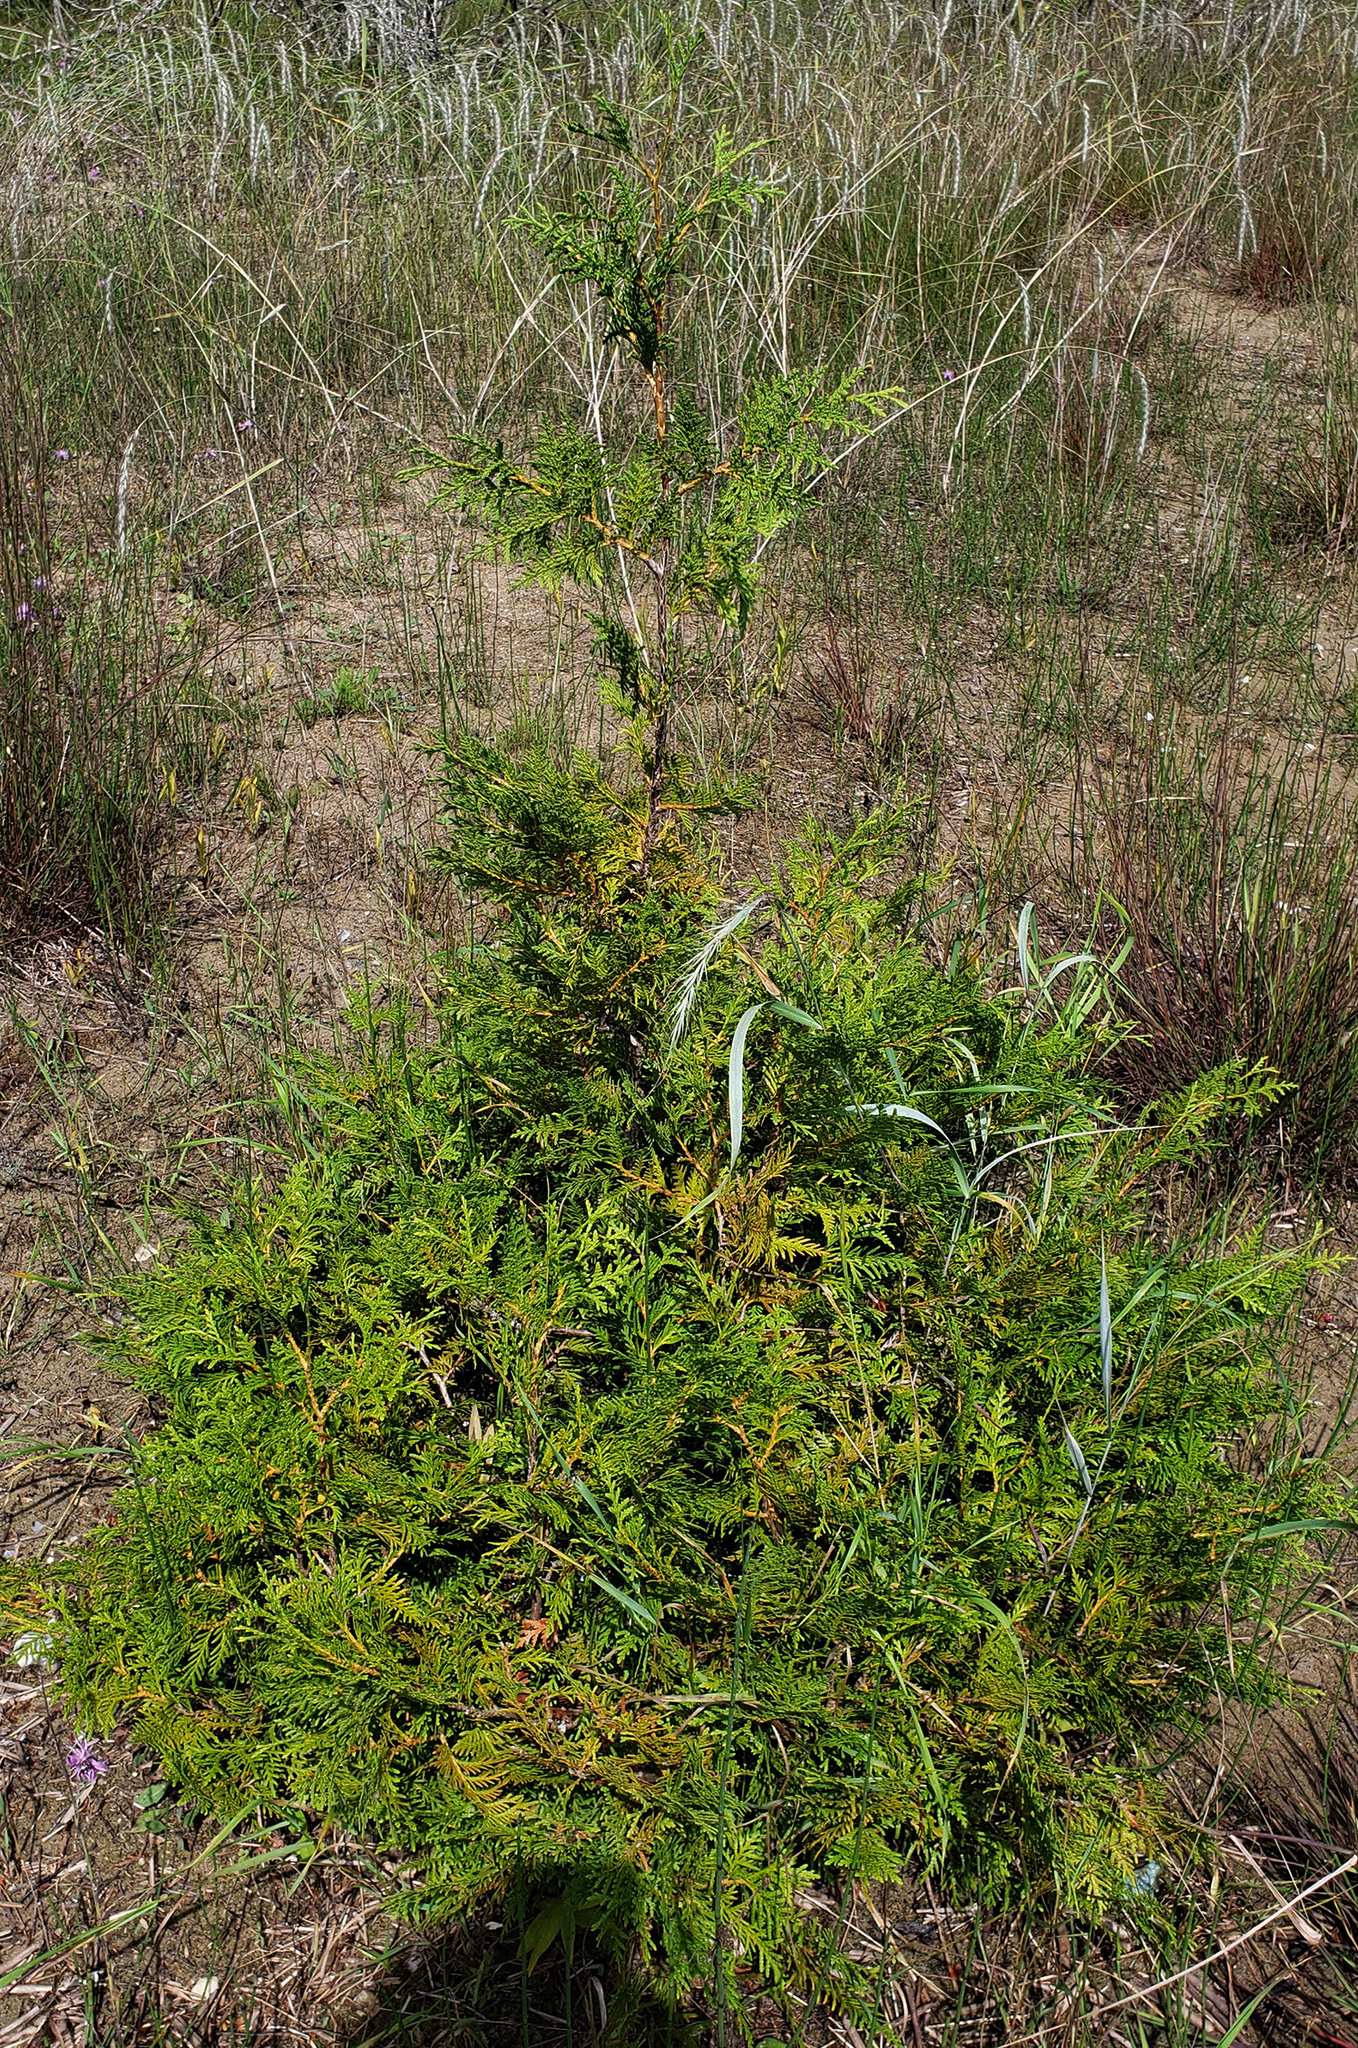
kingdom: Plantae
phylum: Tracheophyta
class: Pinopsida
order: Pinales
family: Cupressaceae
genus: Thuja
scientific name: Thuja occidentalis
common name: Northern white-cedar
